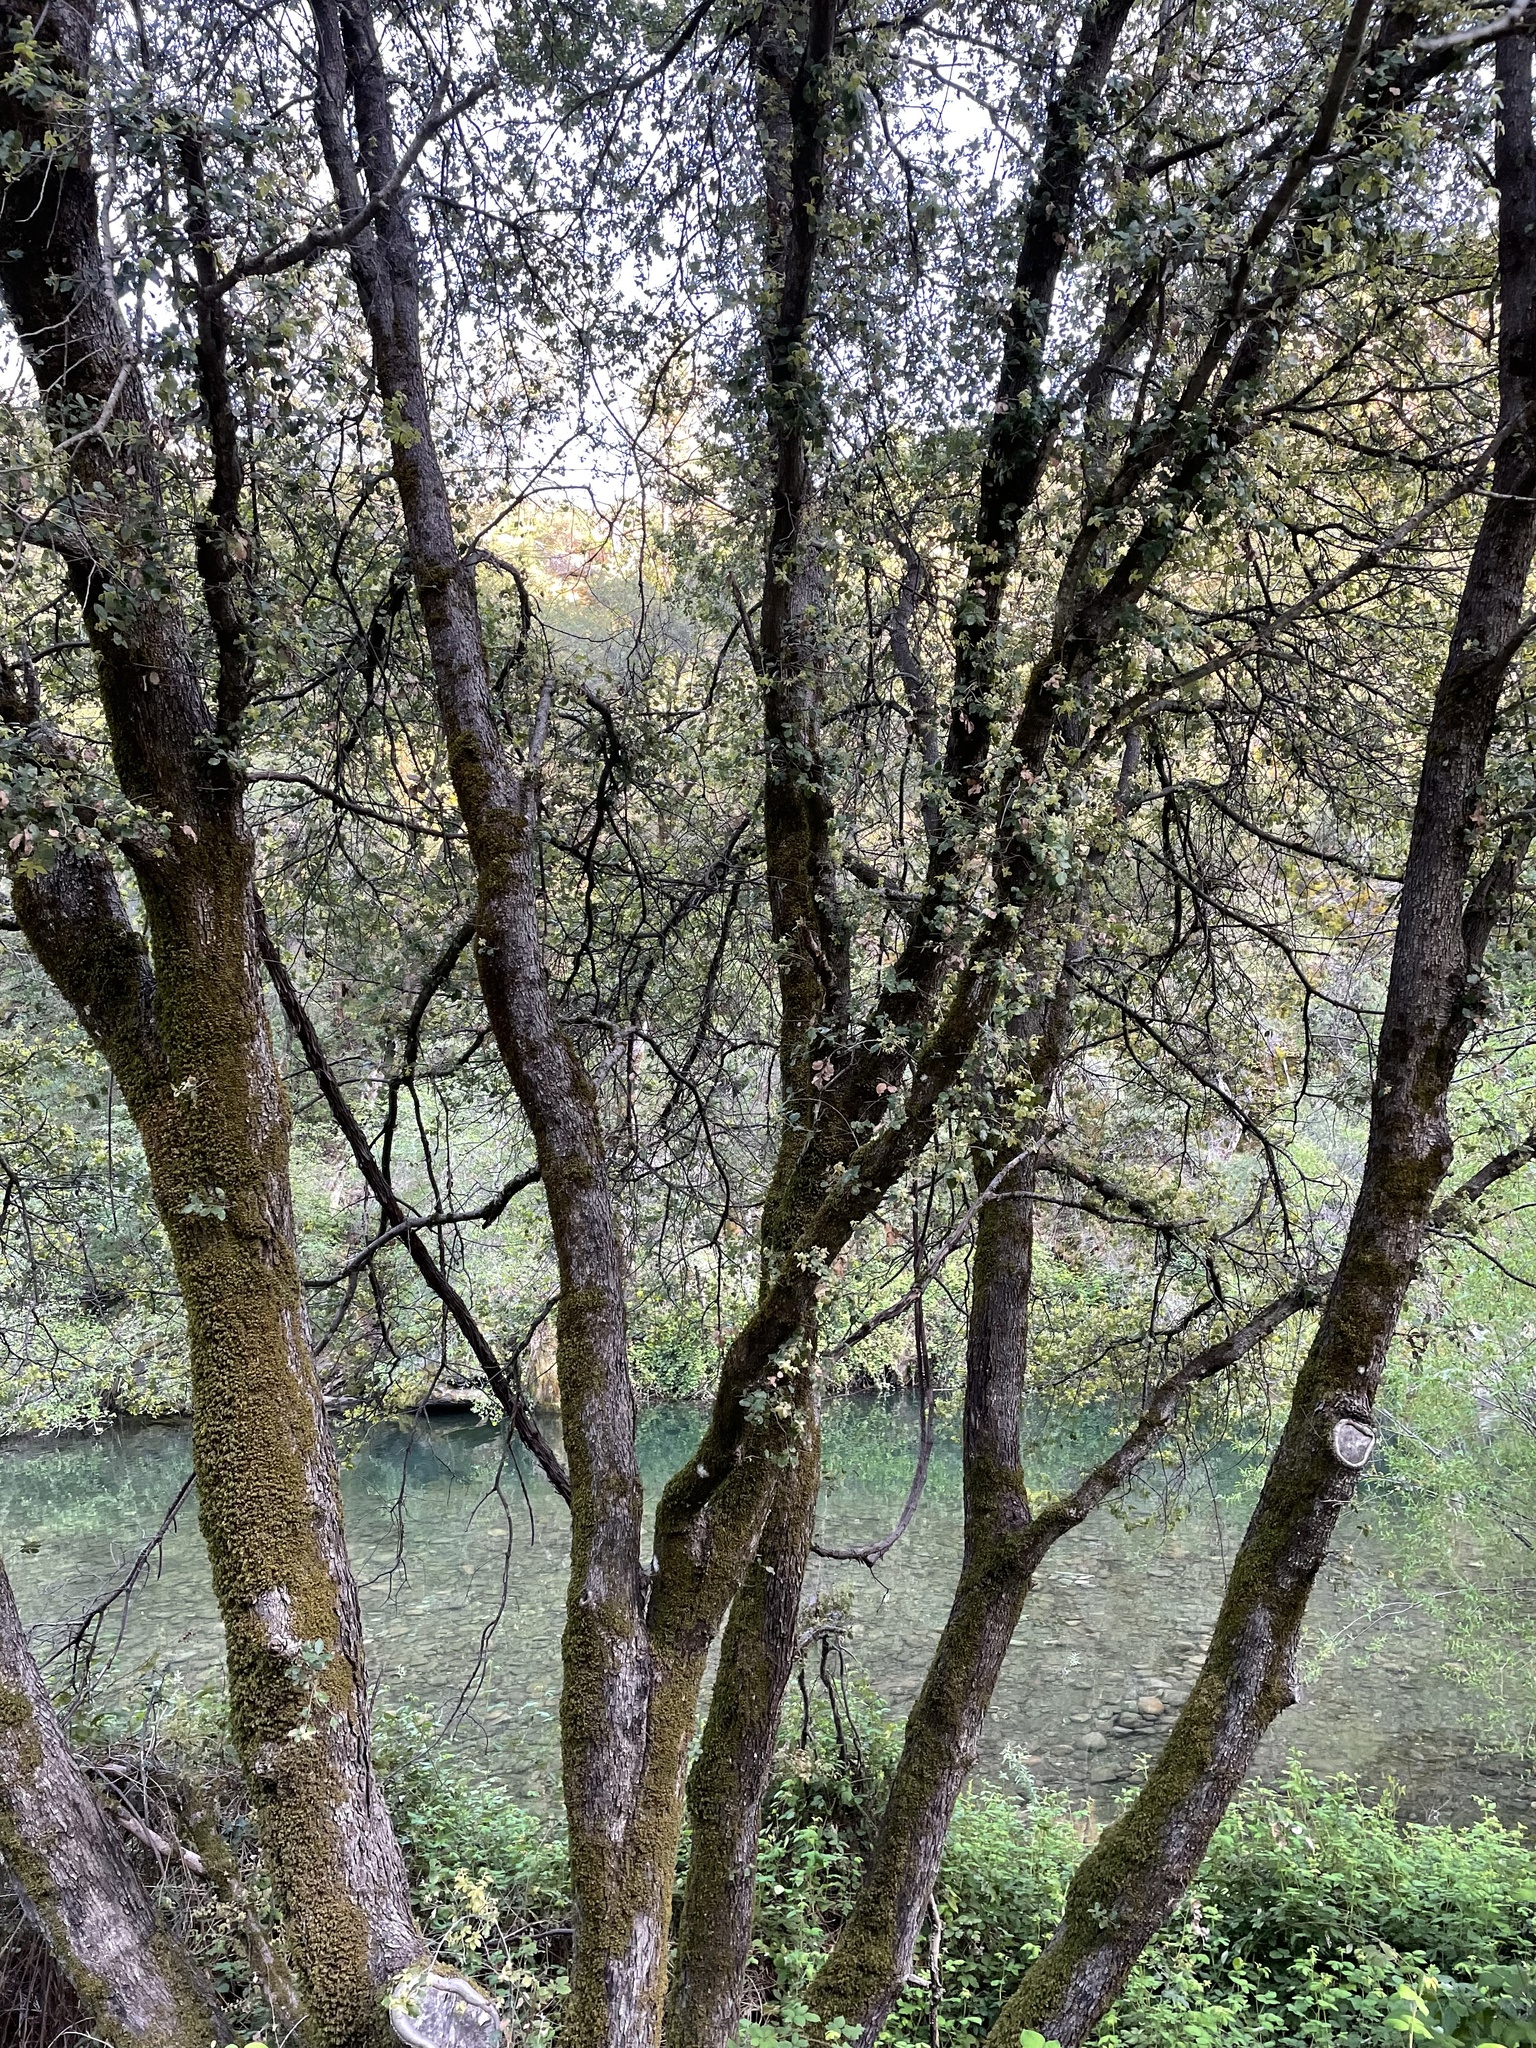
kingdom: Plantae
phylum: Tracheophyta
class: Magnoliopsida
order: Fagales
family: Fagaceae
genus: Quercus
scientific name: Quercus chrysolepis
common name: Canyon live oak
